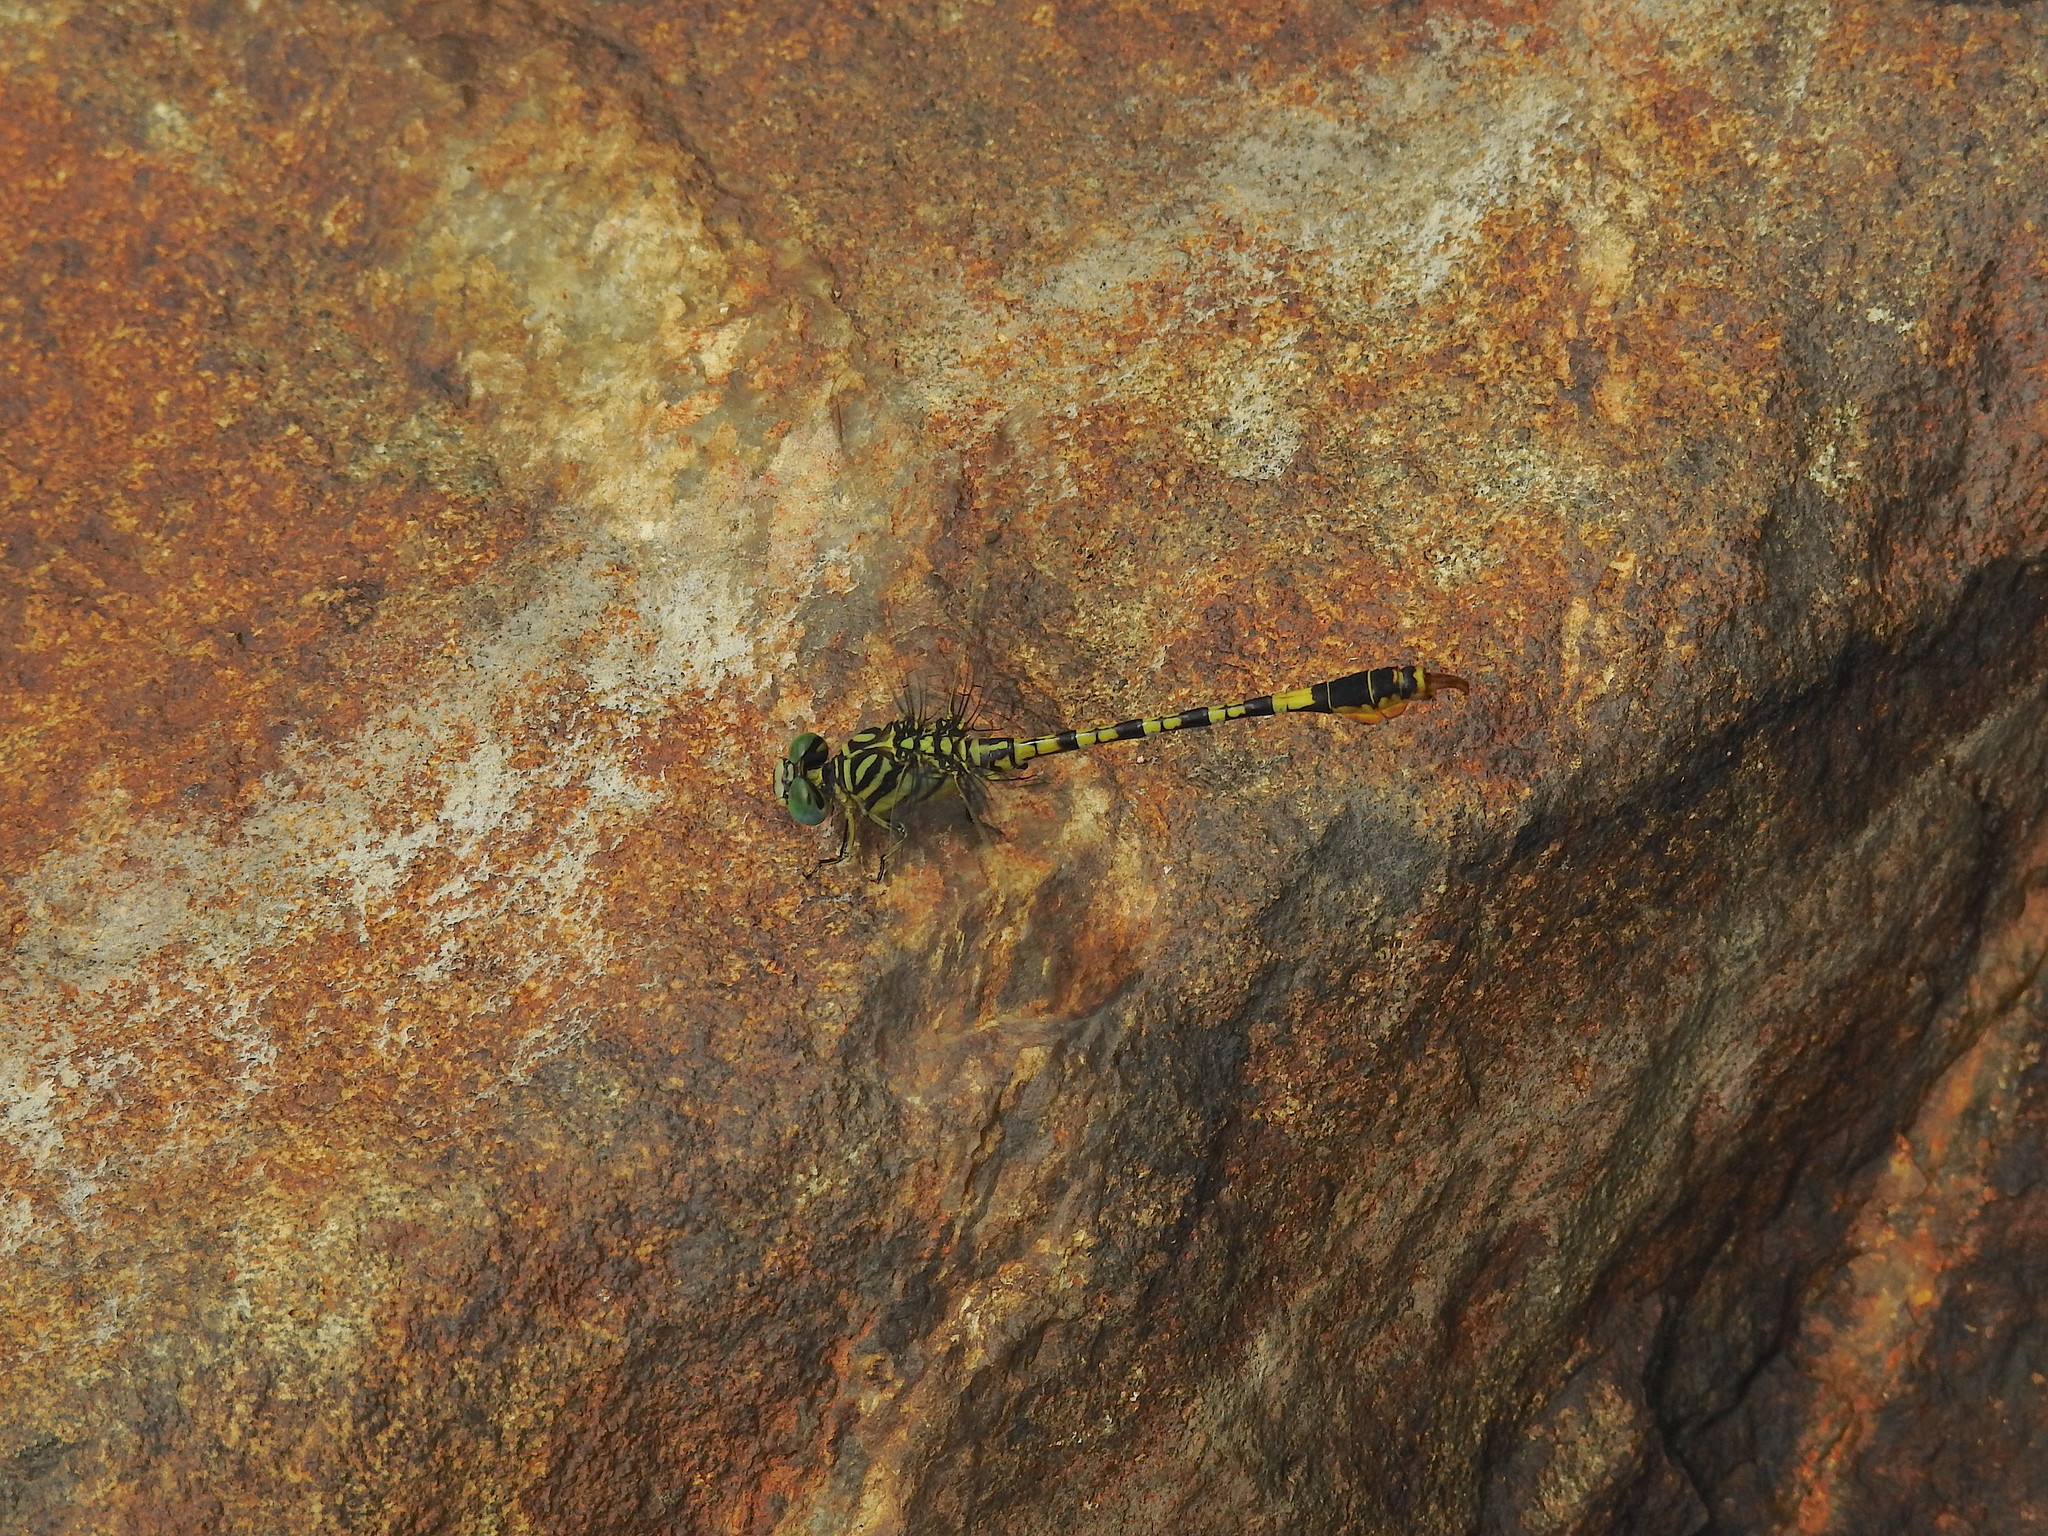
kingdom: Animalia
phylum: Arthropoda
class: Insecta
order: Odonata
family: Gomphidae
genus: Paragomphus
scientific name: Paragomphus lineatus
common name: Lined hooktail
